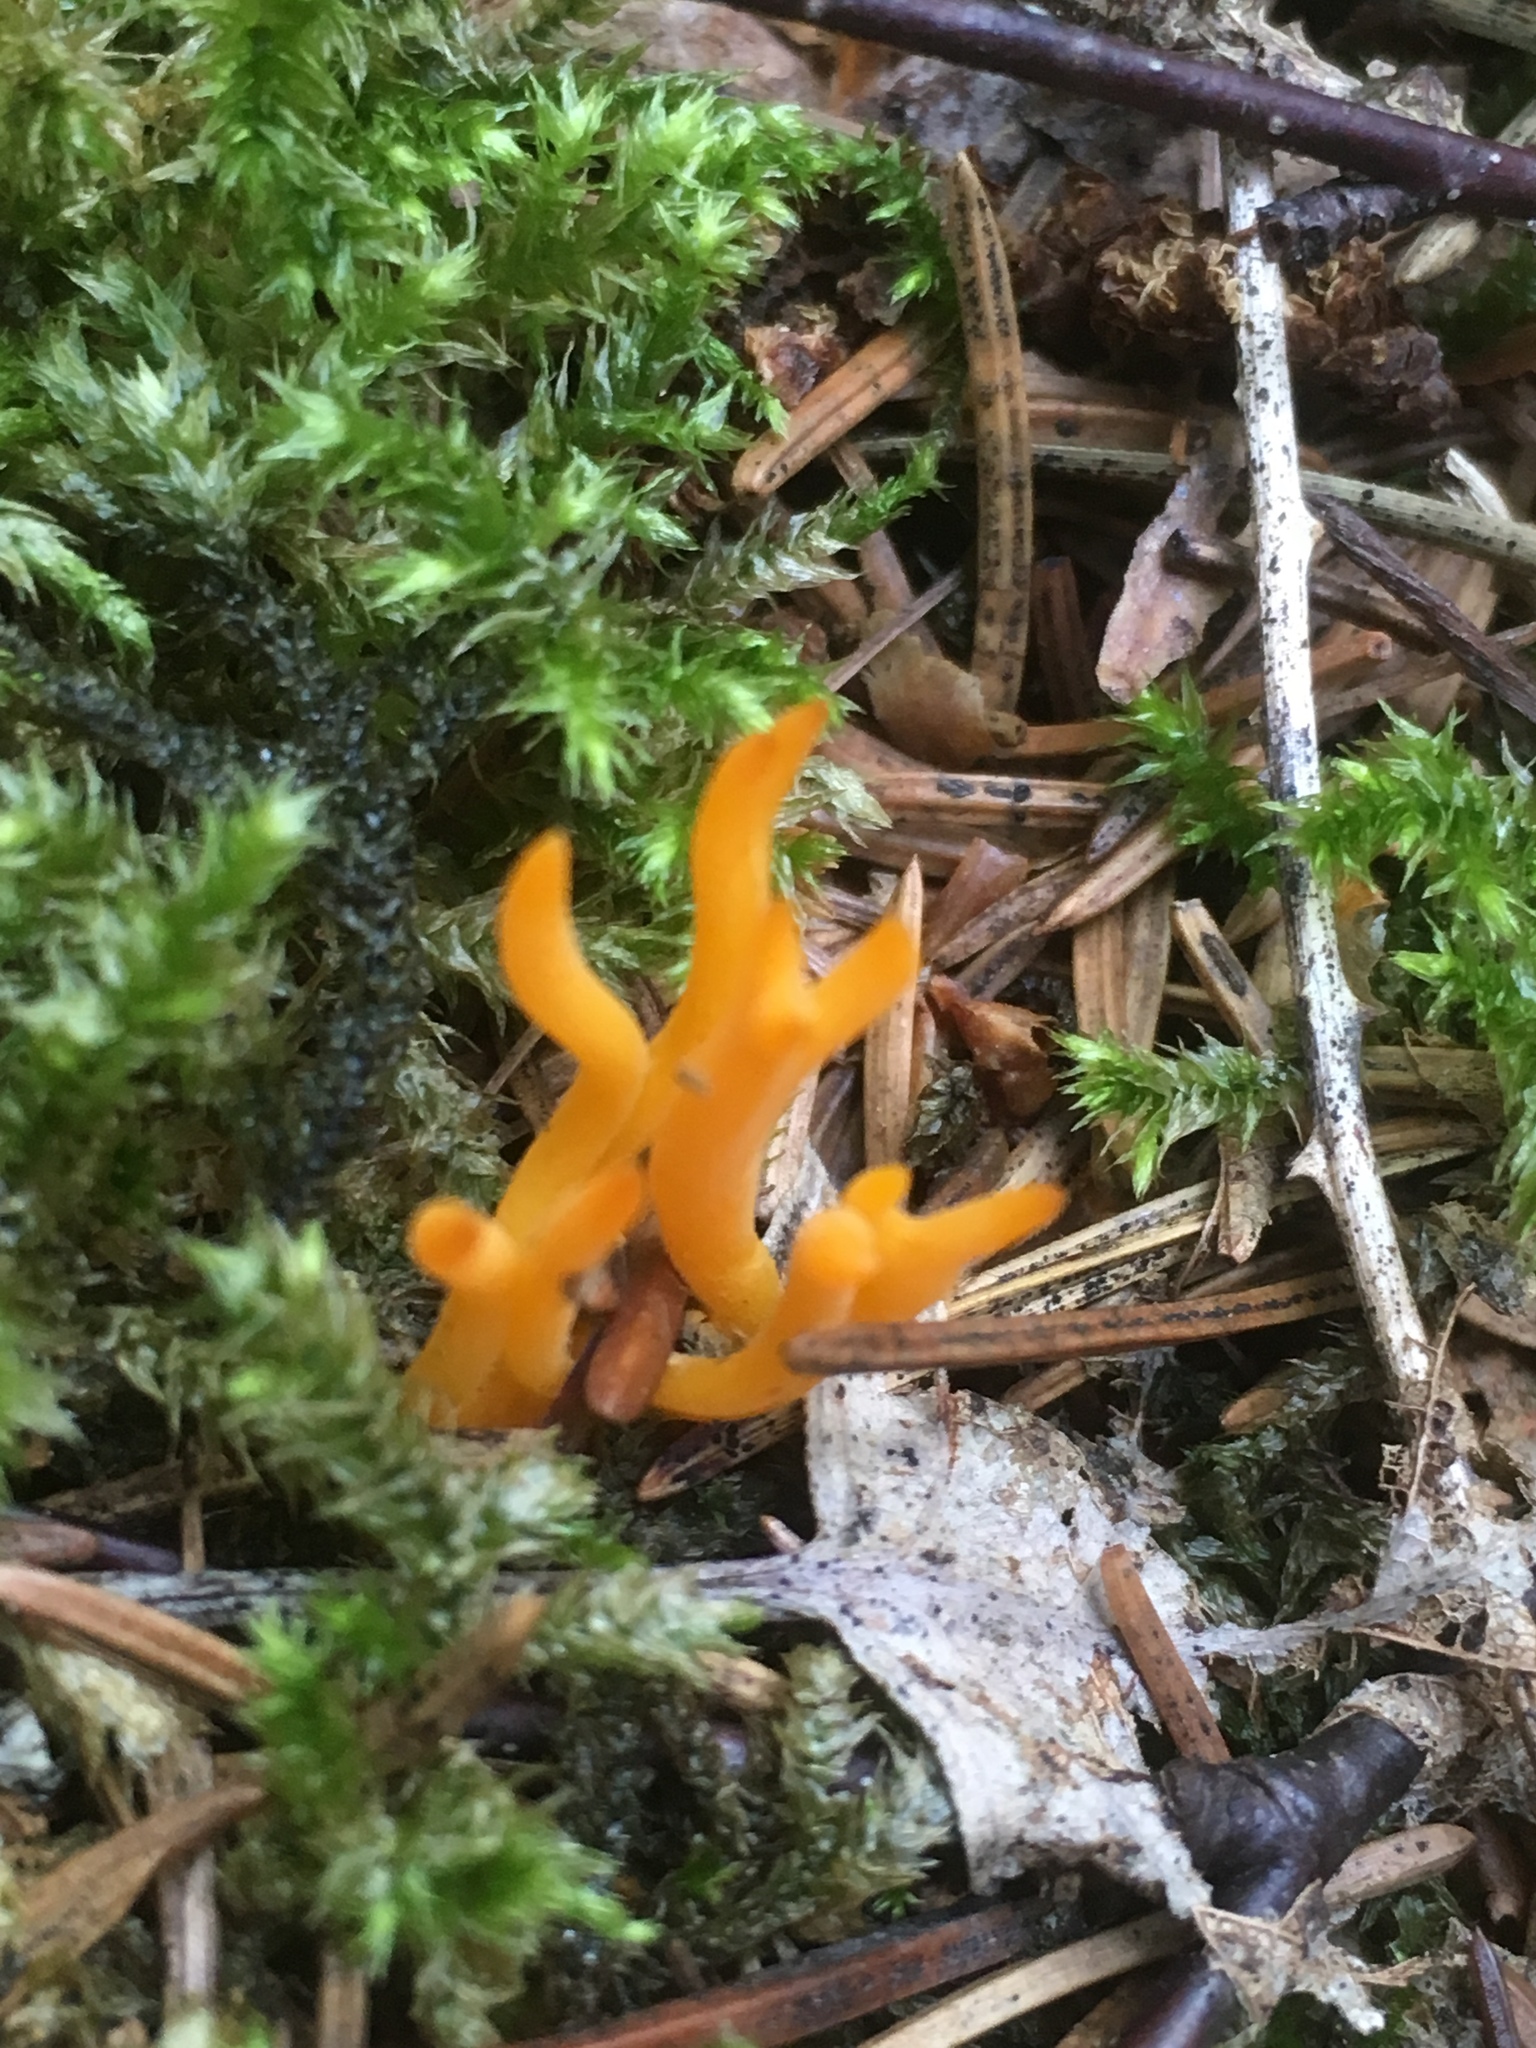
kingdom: Fungi
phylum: Basidiomycota
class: Dacrymycetes
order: Dacrymycetales
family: Dacrymycetaceae
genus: Calocera
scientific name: Calocera viscosa
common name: Yellow stagshorn
